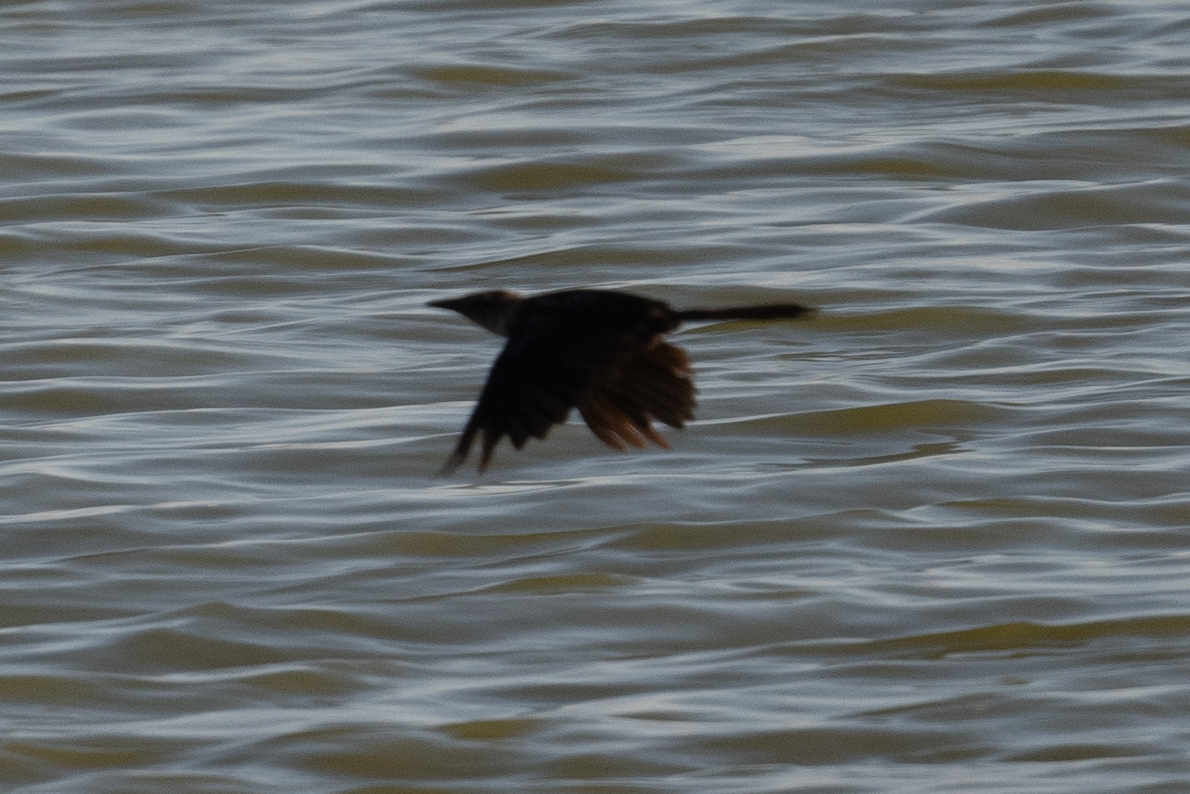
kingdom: Animalia
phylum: Chordata
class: Aves
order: Passeriformes
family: Icteridae
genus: Quiscalus
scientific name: Quiscalus mexicanus
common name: Great-tailed grackle
